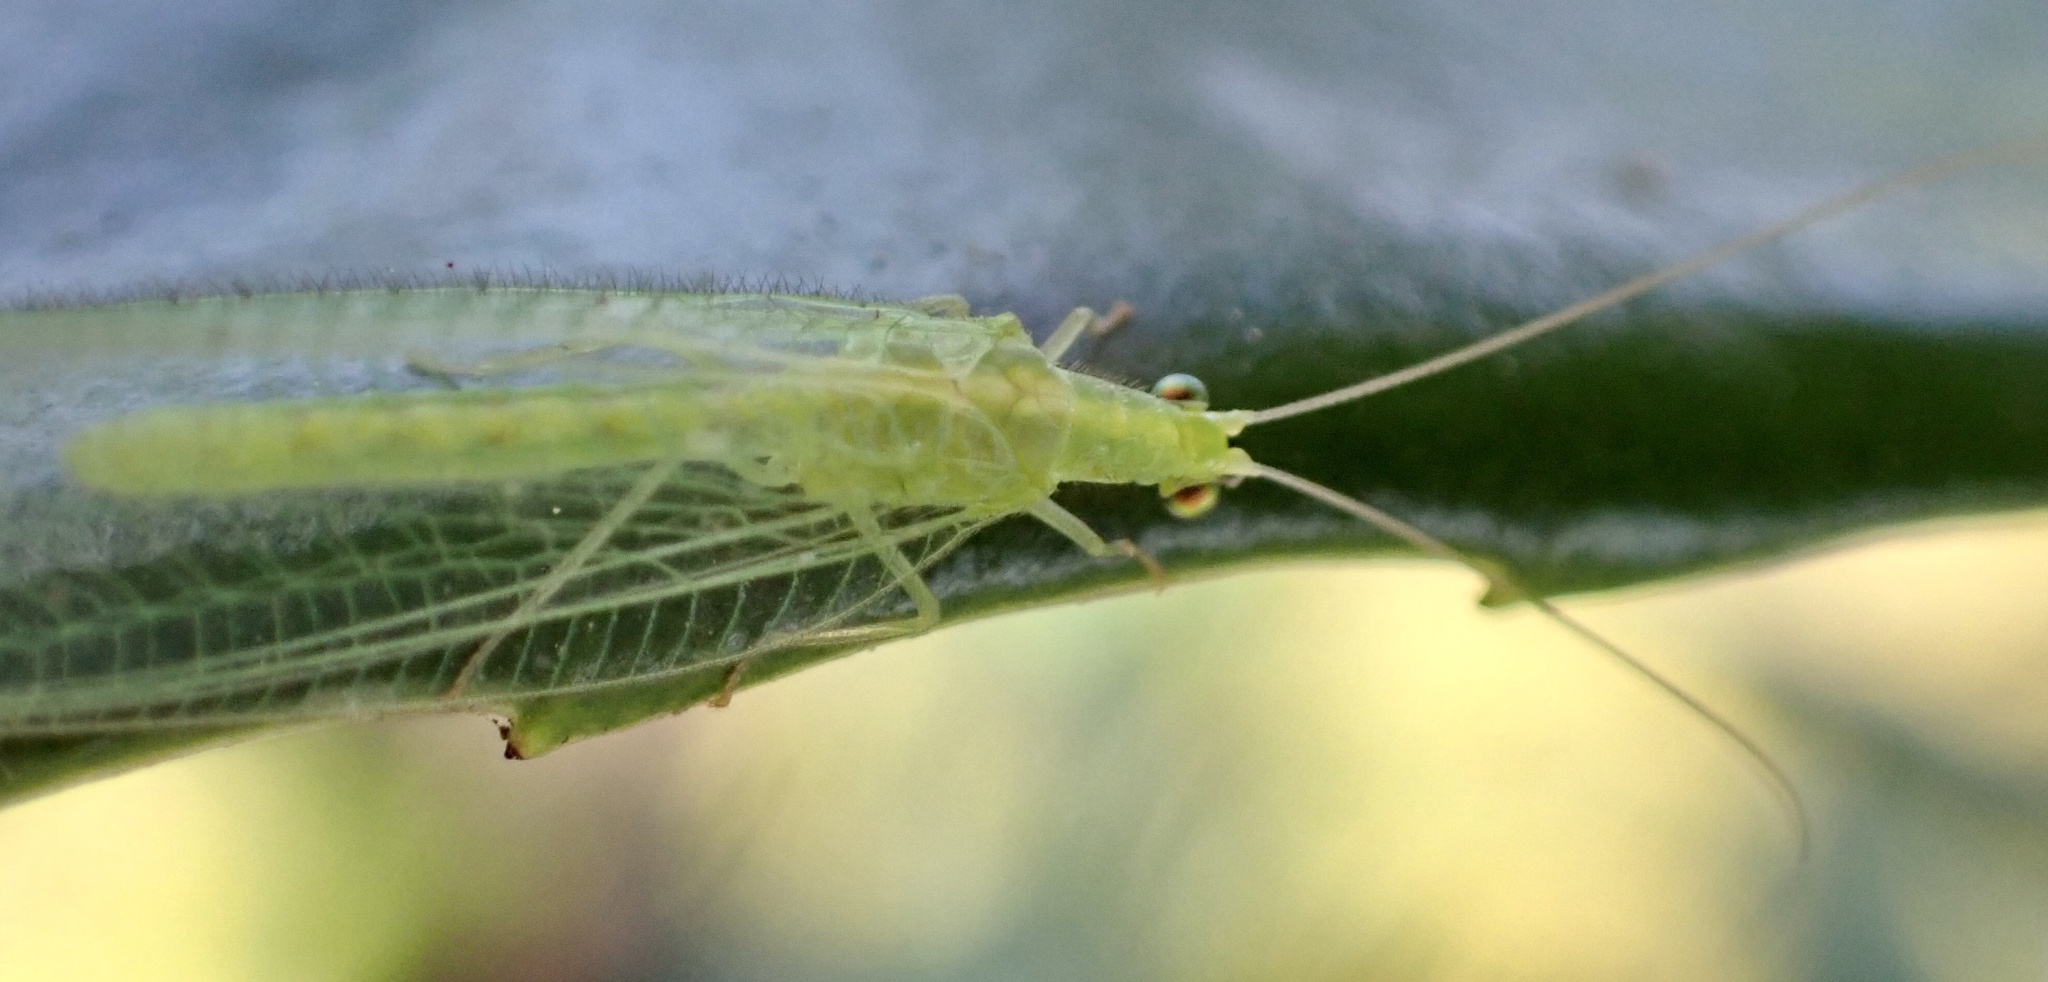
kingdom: Animalia
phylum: Arthropoda
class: Insecta
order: Neuroptera
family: Chrysopidae
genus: Chrysoperla
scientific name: Chrysoperla
